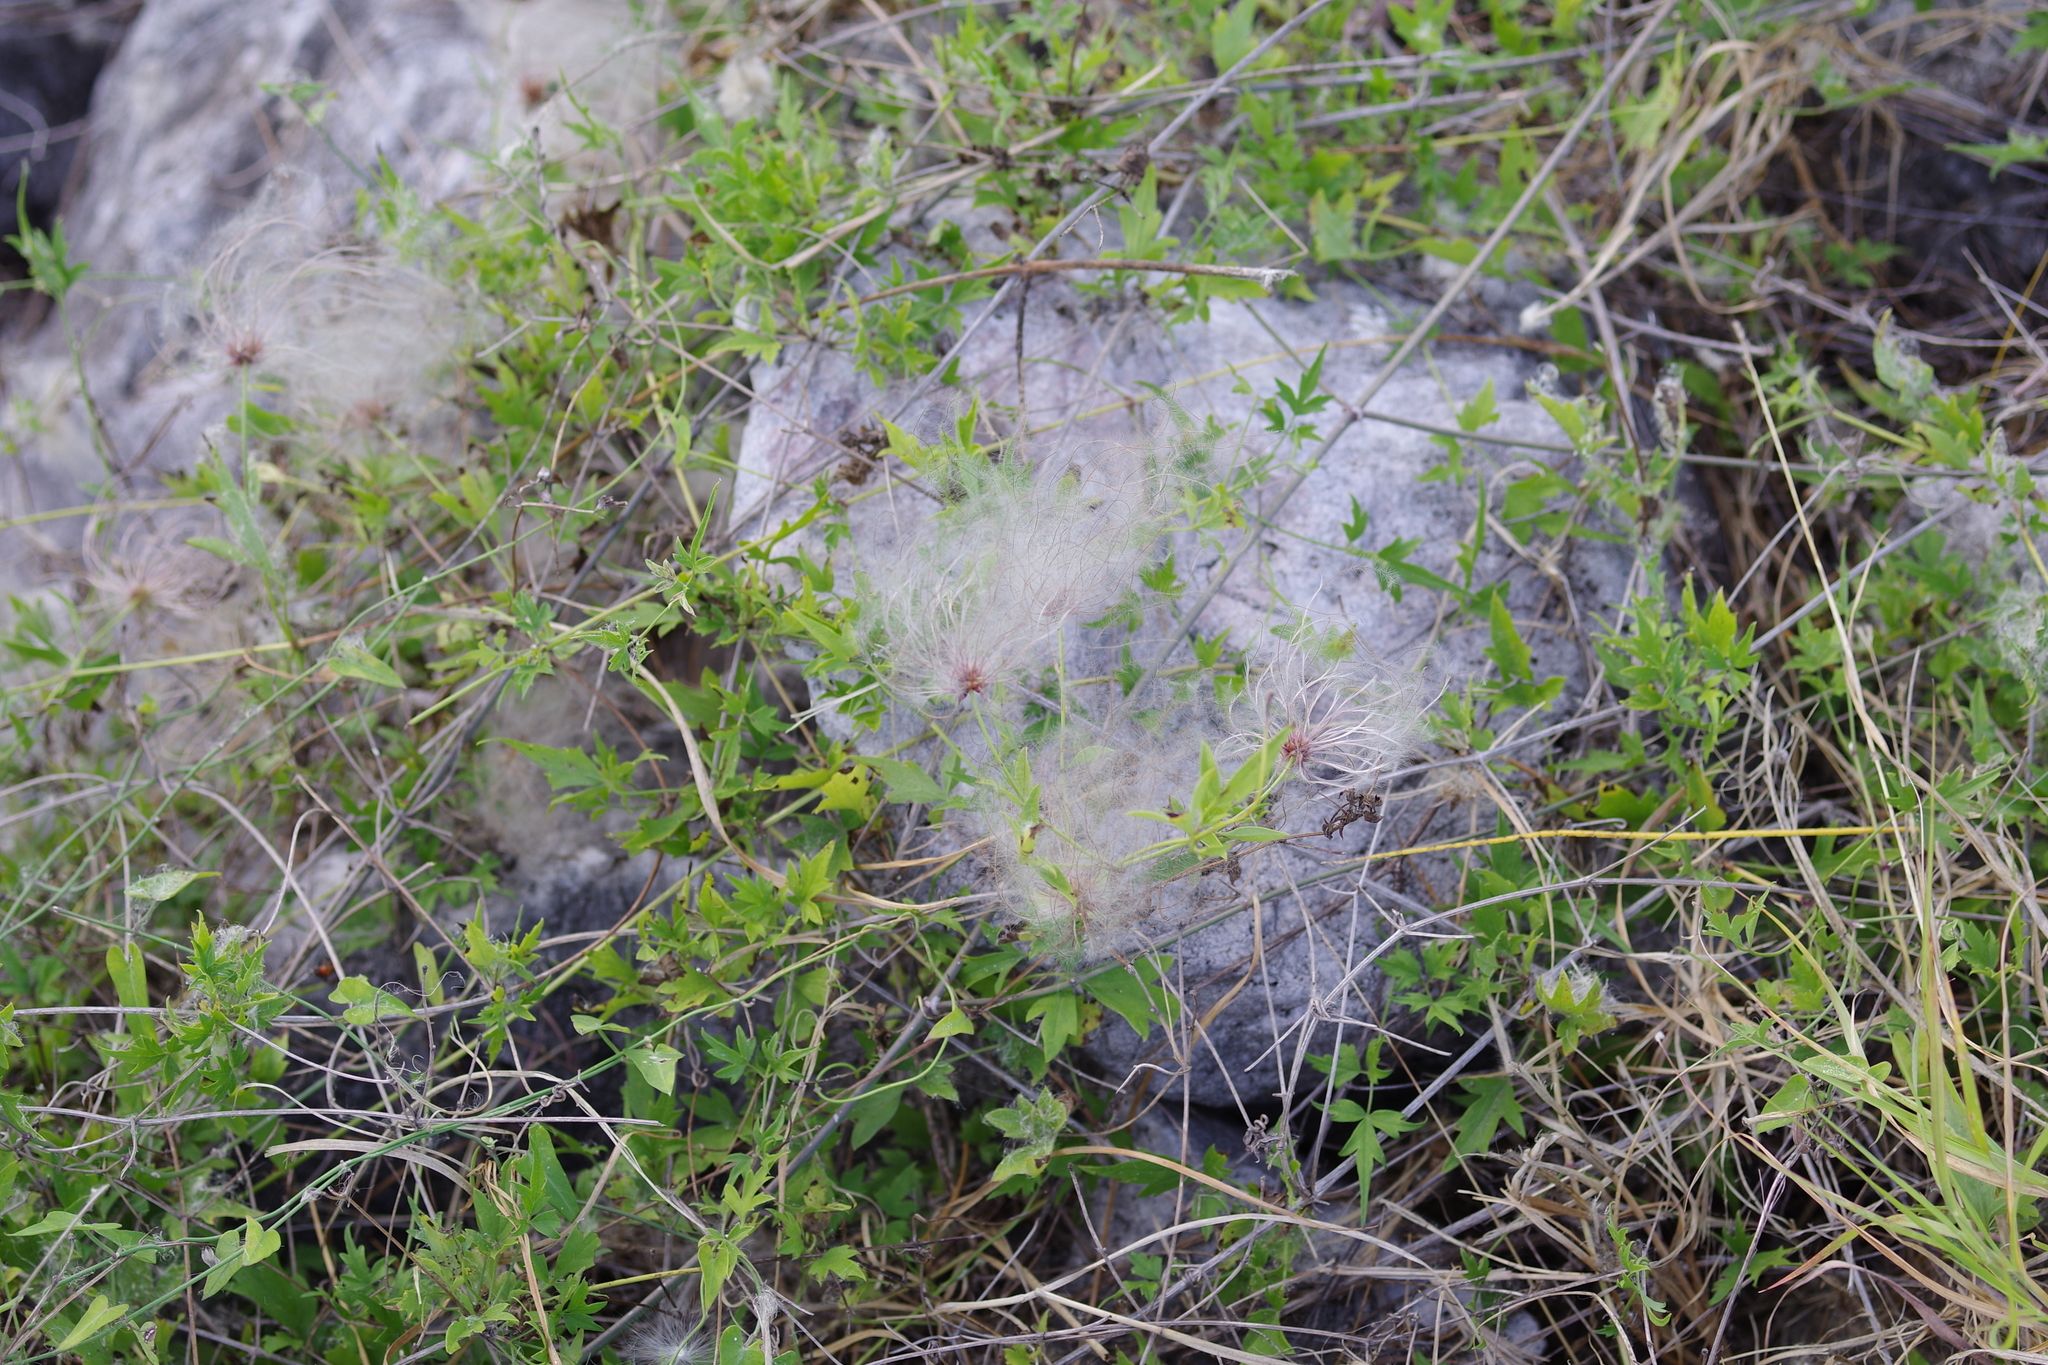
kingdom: Plantae
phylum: Tracheophyta
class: Magnoliopsida
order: Ranunculales
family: Ranunculaceae
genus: Clematis
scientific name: Clematis drummondii
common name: Texas virgin's bower
